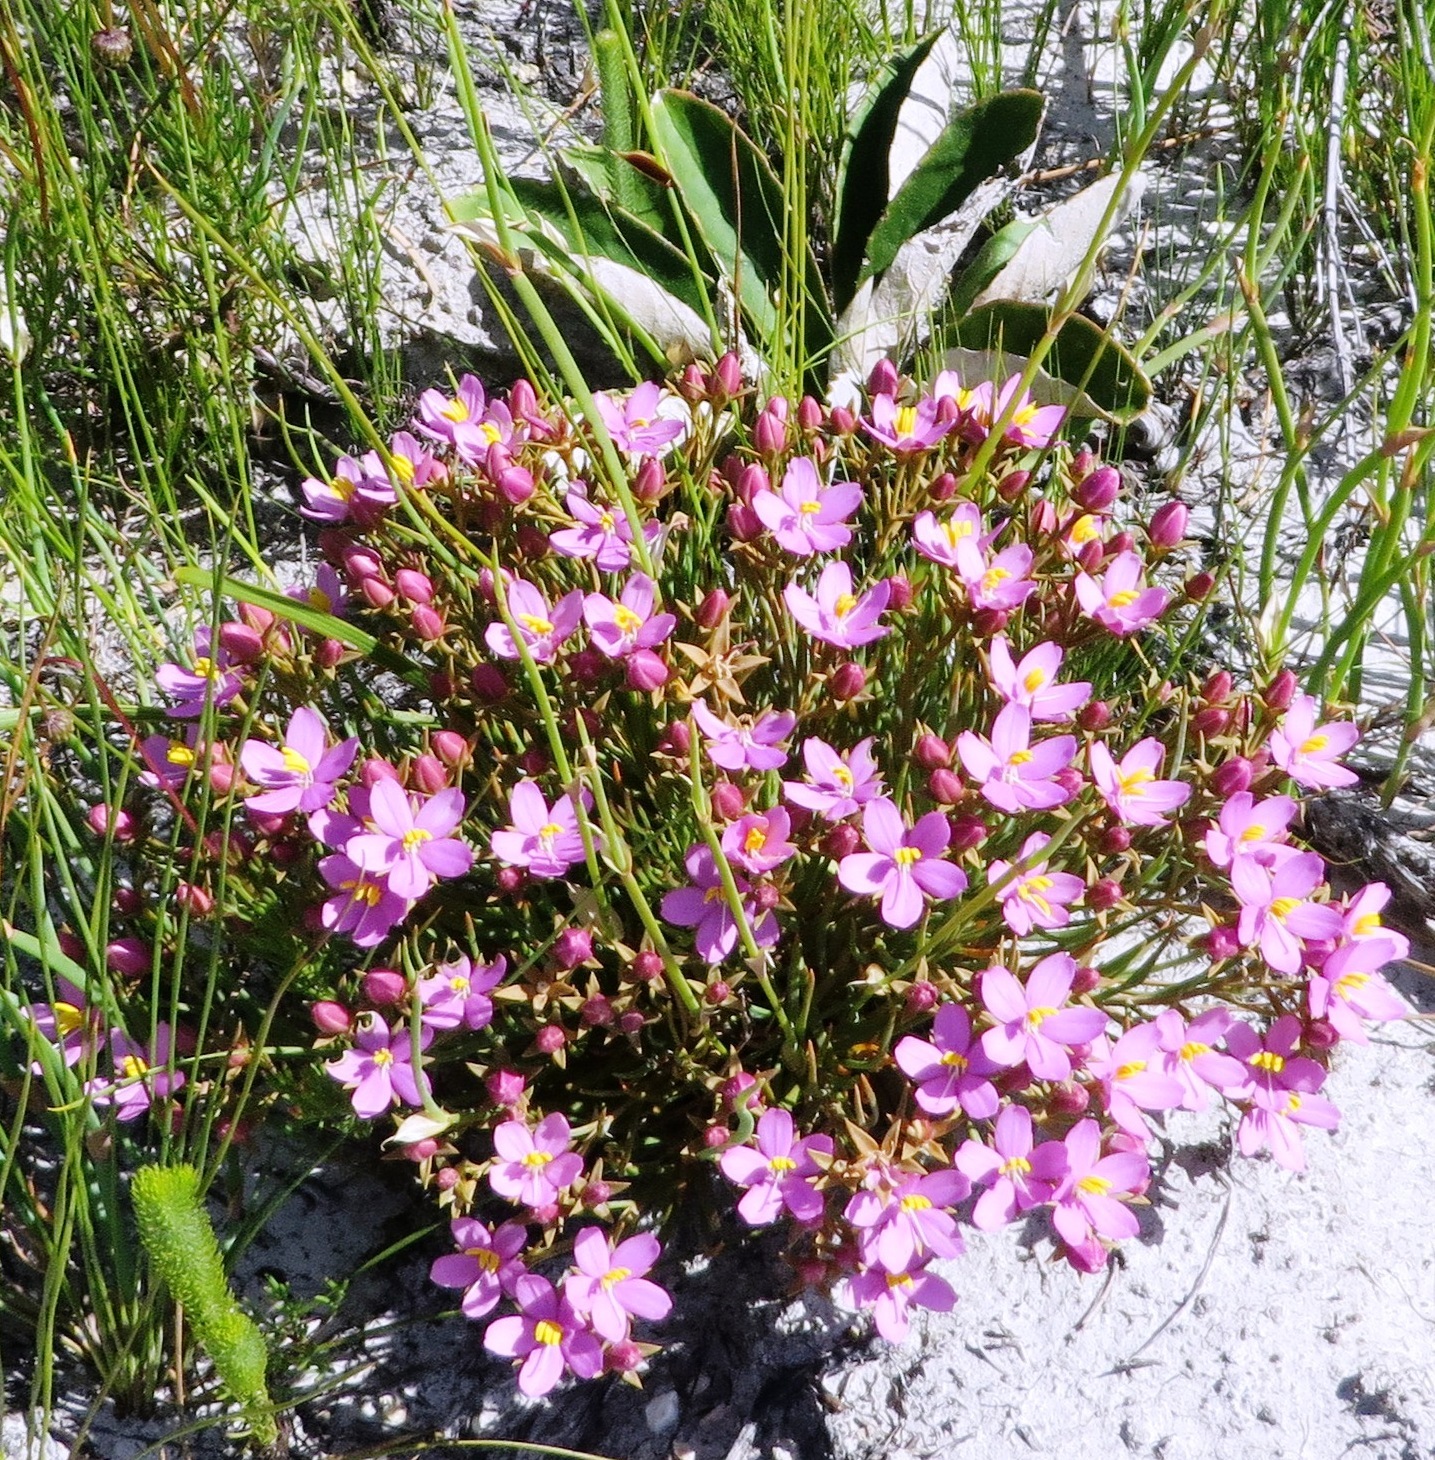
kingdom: Plantae
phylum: Tracheophyta
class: Magnoliopsida
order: Gentianales
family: Gentianaceae
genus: Chironia
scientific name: Chironia linoides
